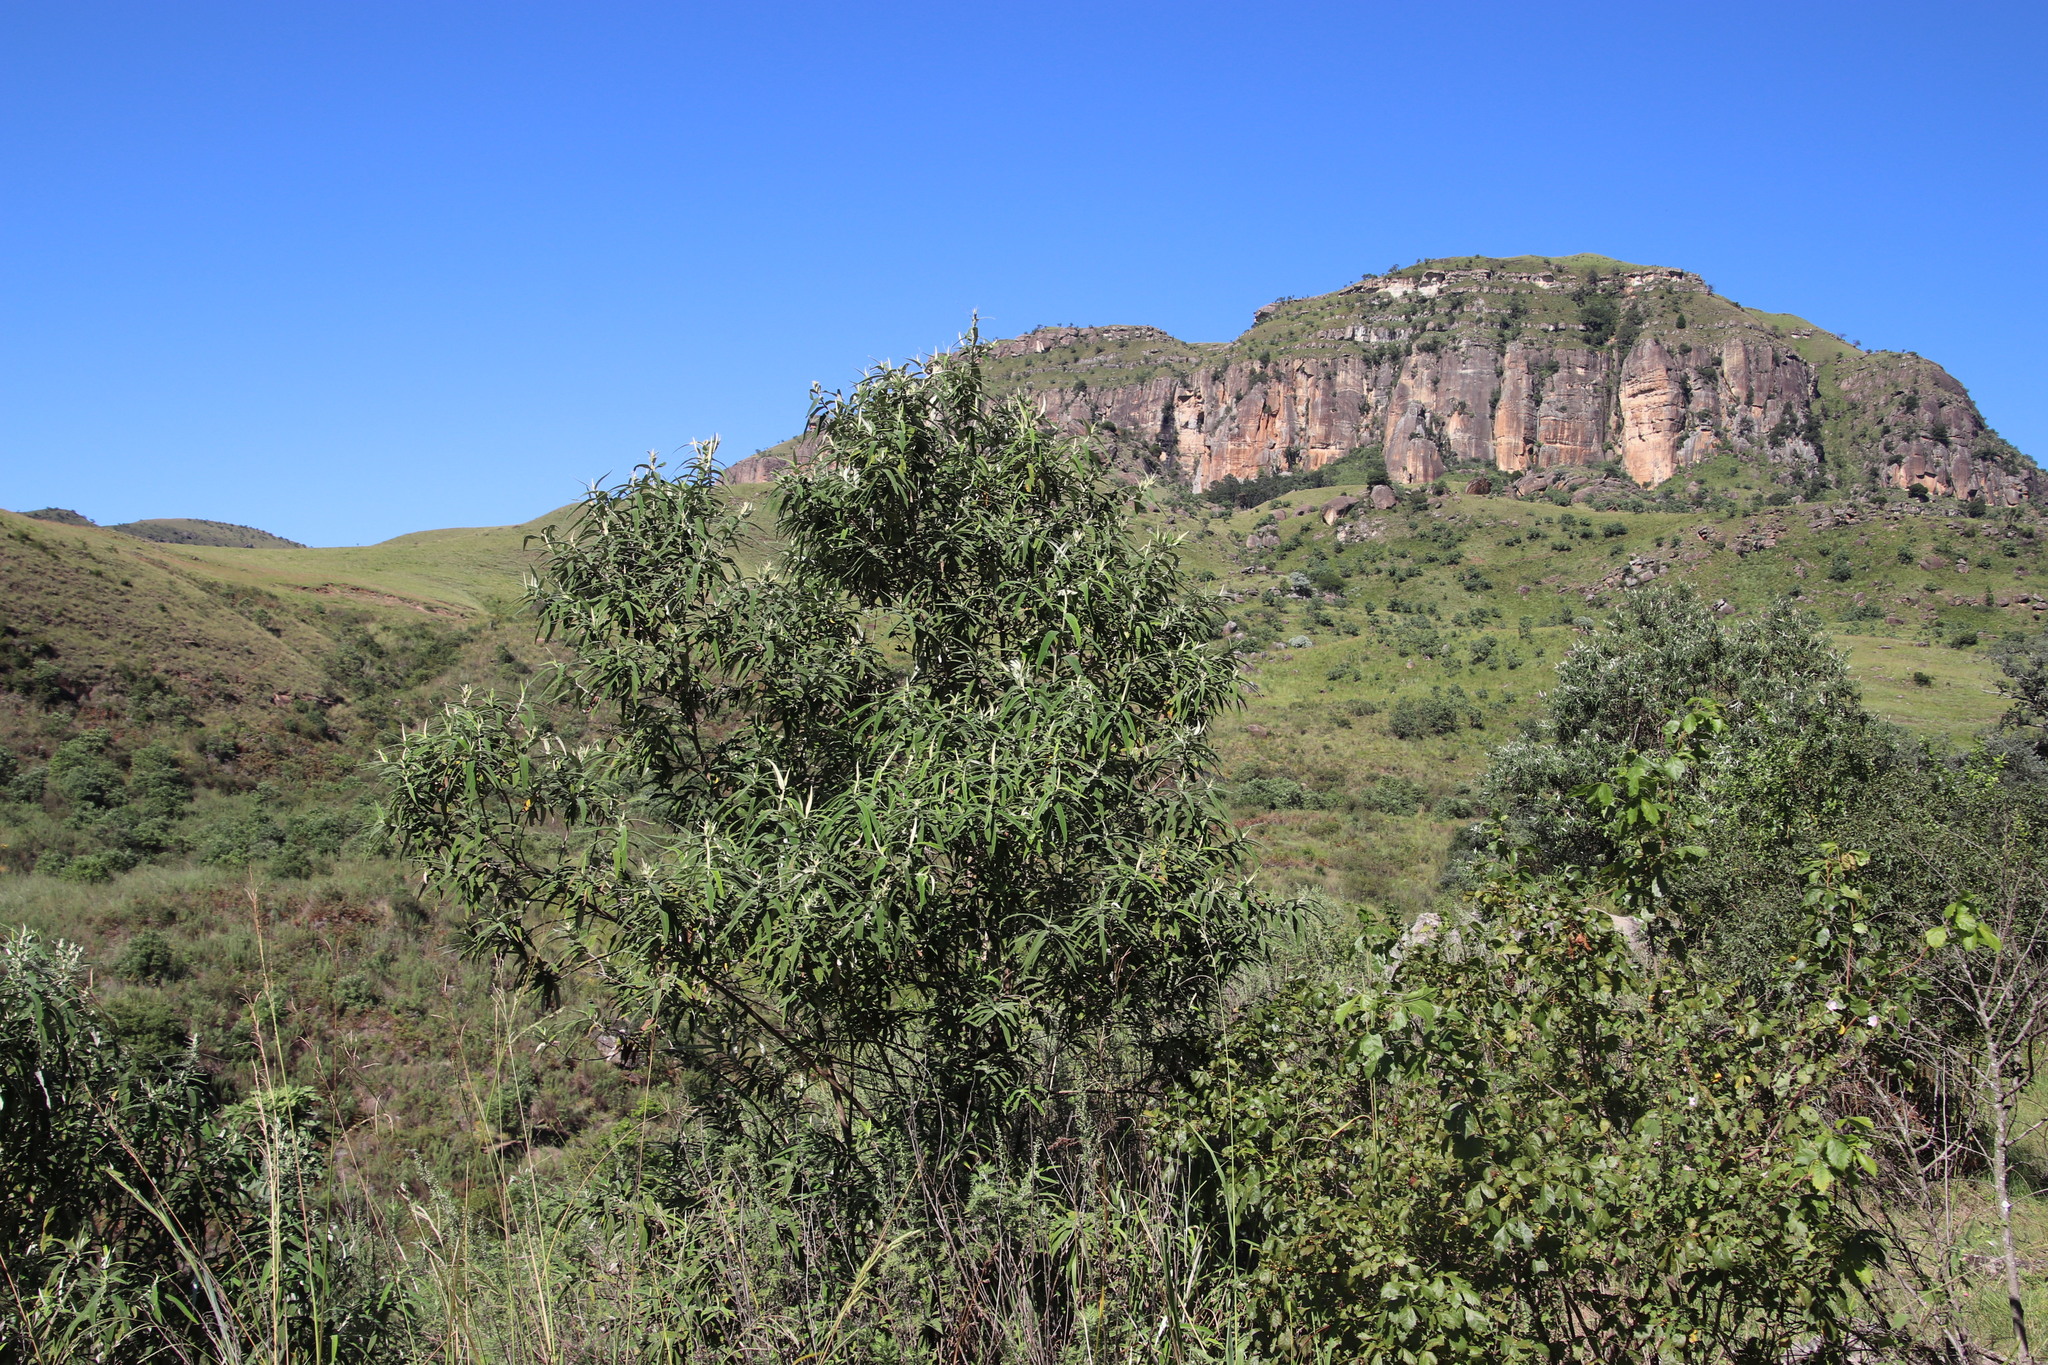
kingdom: Plantae
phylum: Tracheophyta
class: Magnoliopsida
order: Lamiales
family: Scrophulariaceae
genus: Buddleja
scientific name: Buddleja salviifolia
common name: Sagewood
